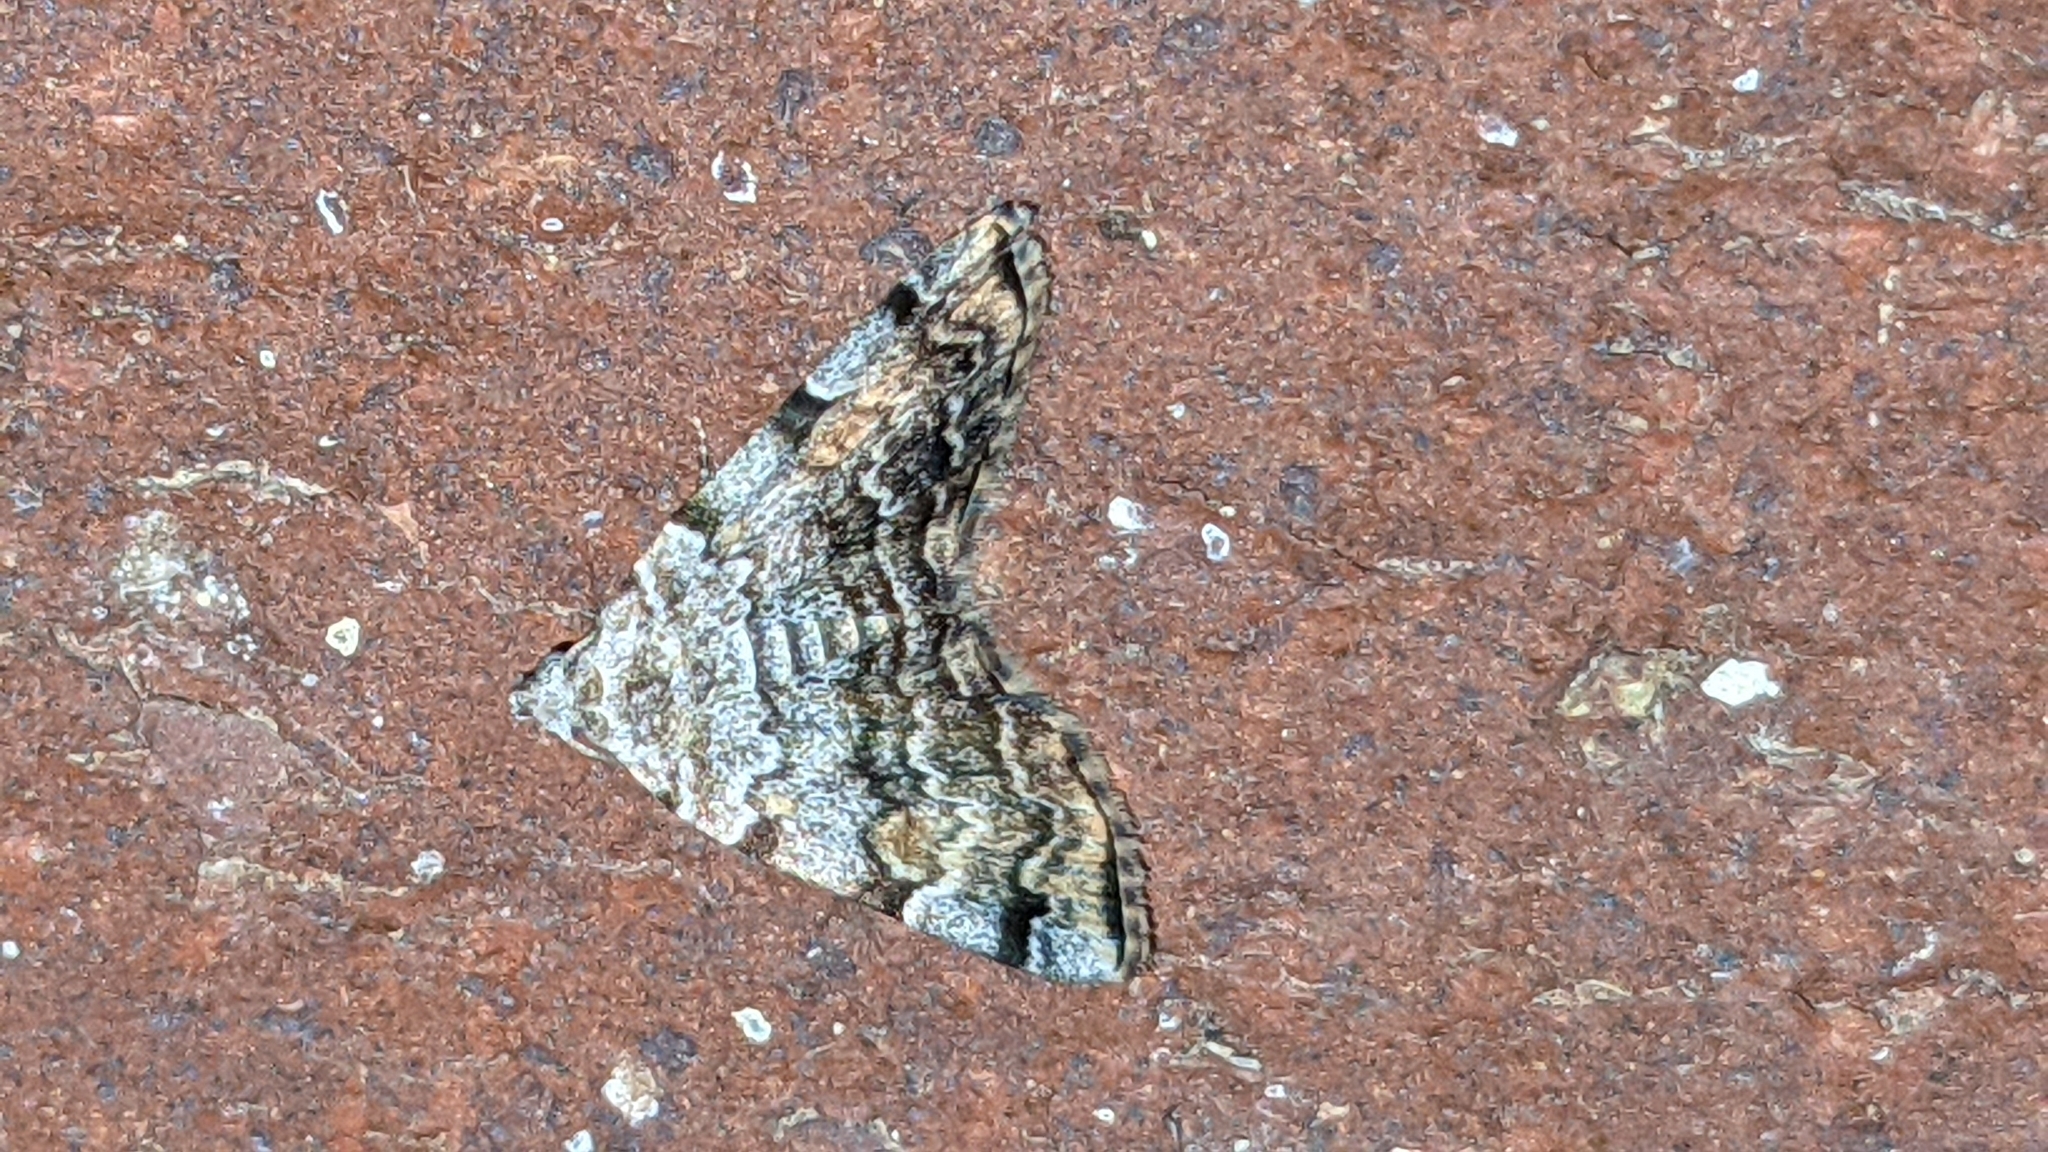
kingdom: Animalia
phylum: Arthropoda
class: Insecta
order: Lepidoptera
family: Erebidae
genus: Idia
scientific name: Idia americalis
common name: American idia moth
